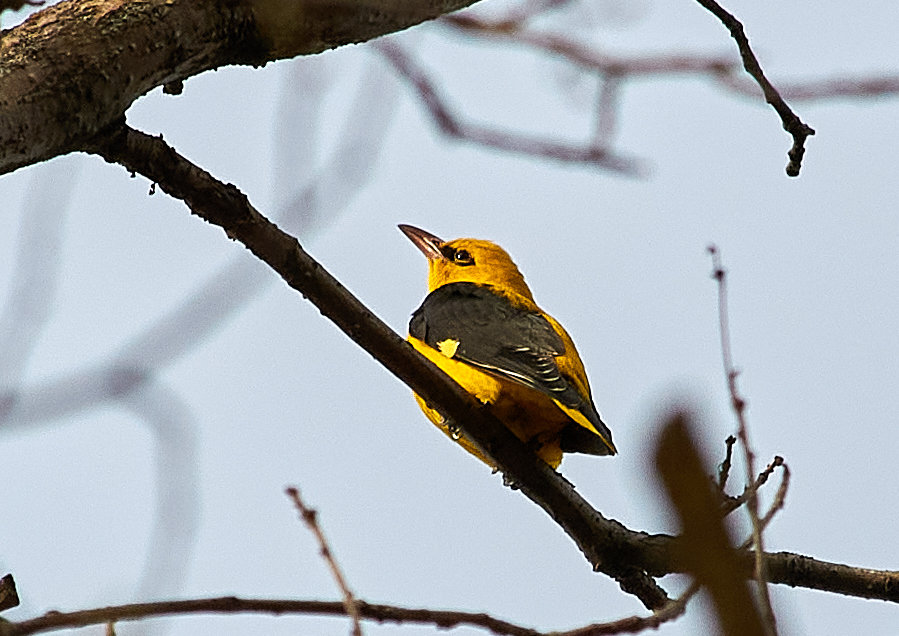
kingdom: Animalia
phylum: Chordata
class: Aves
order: Passeriformes
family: Oriolidae
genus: Oriolus
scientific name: Oriolus oriolus
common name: Eurasian golden oriole
